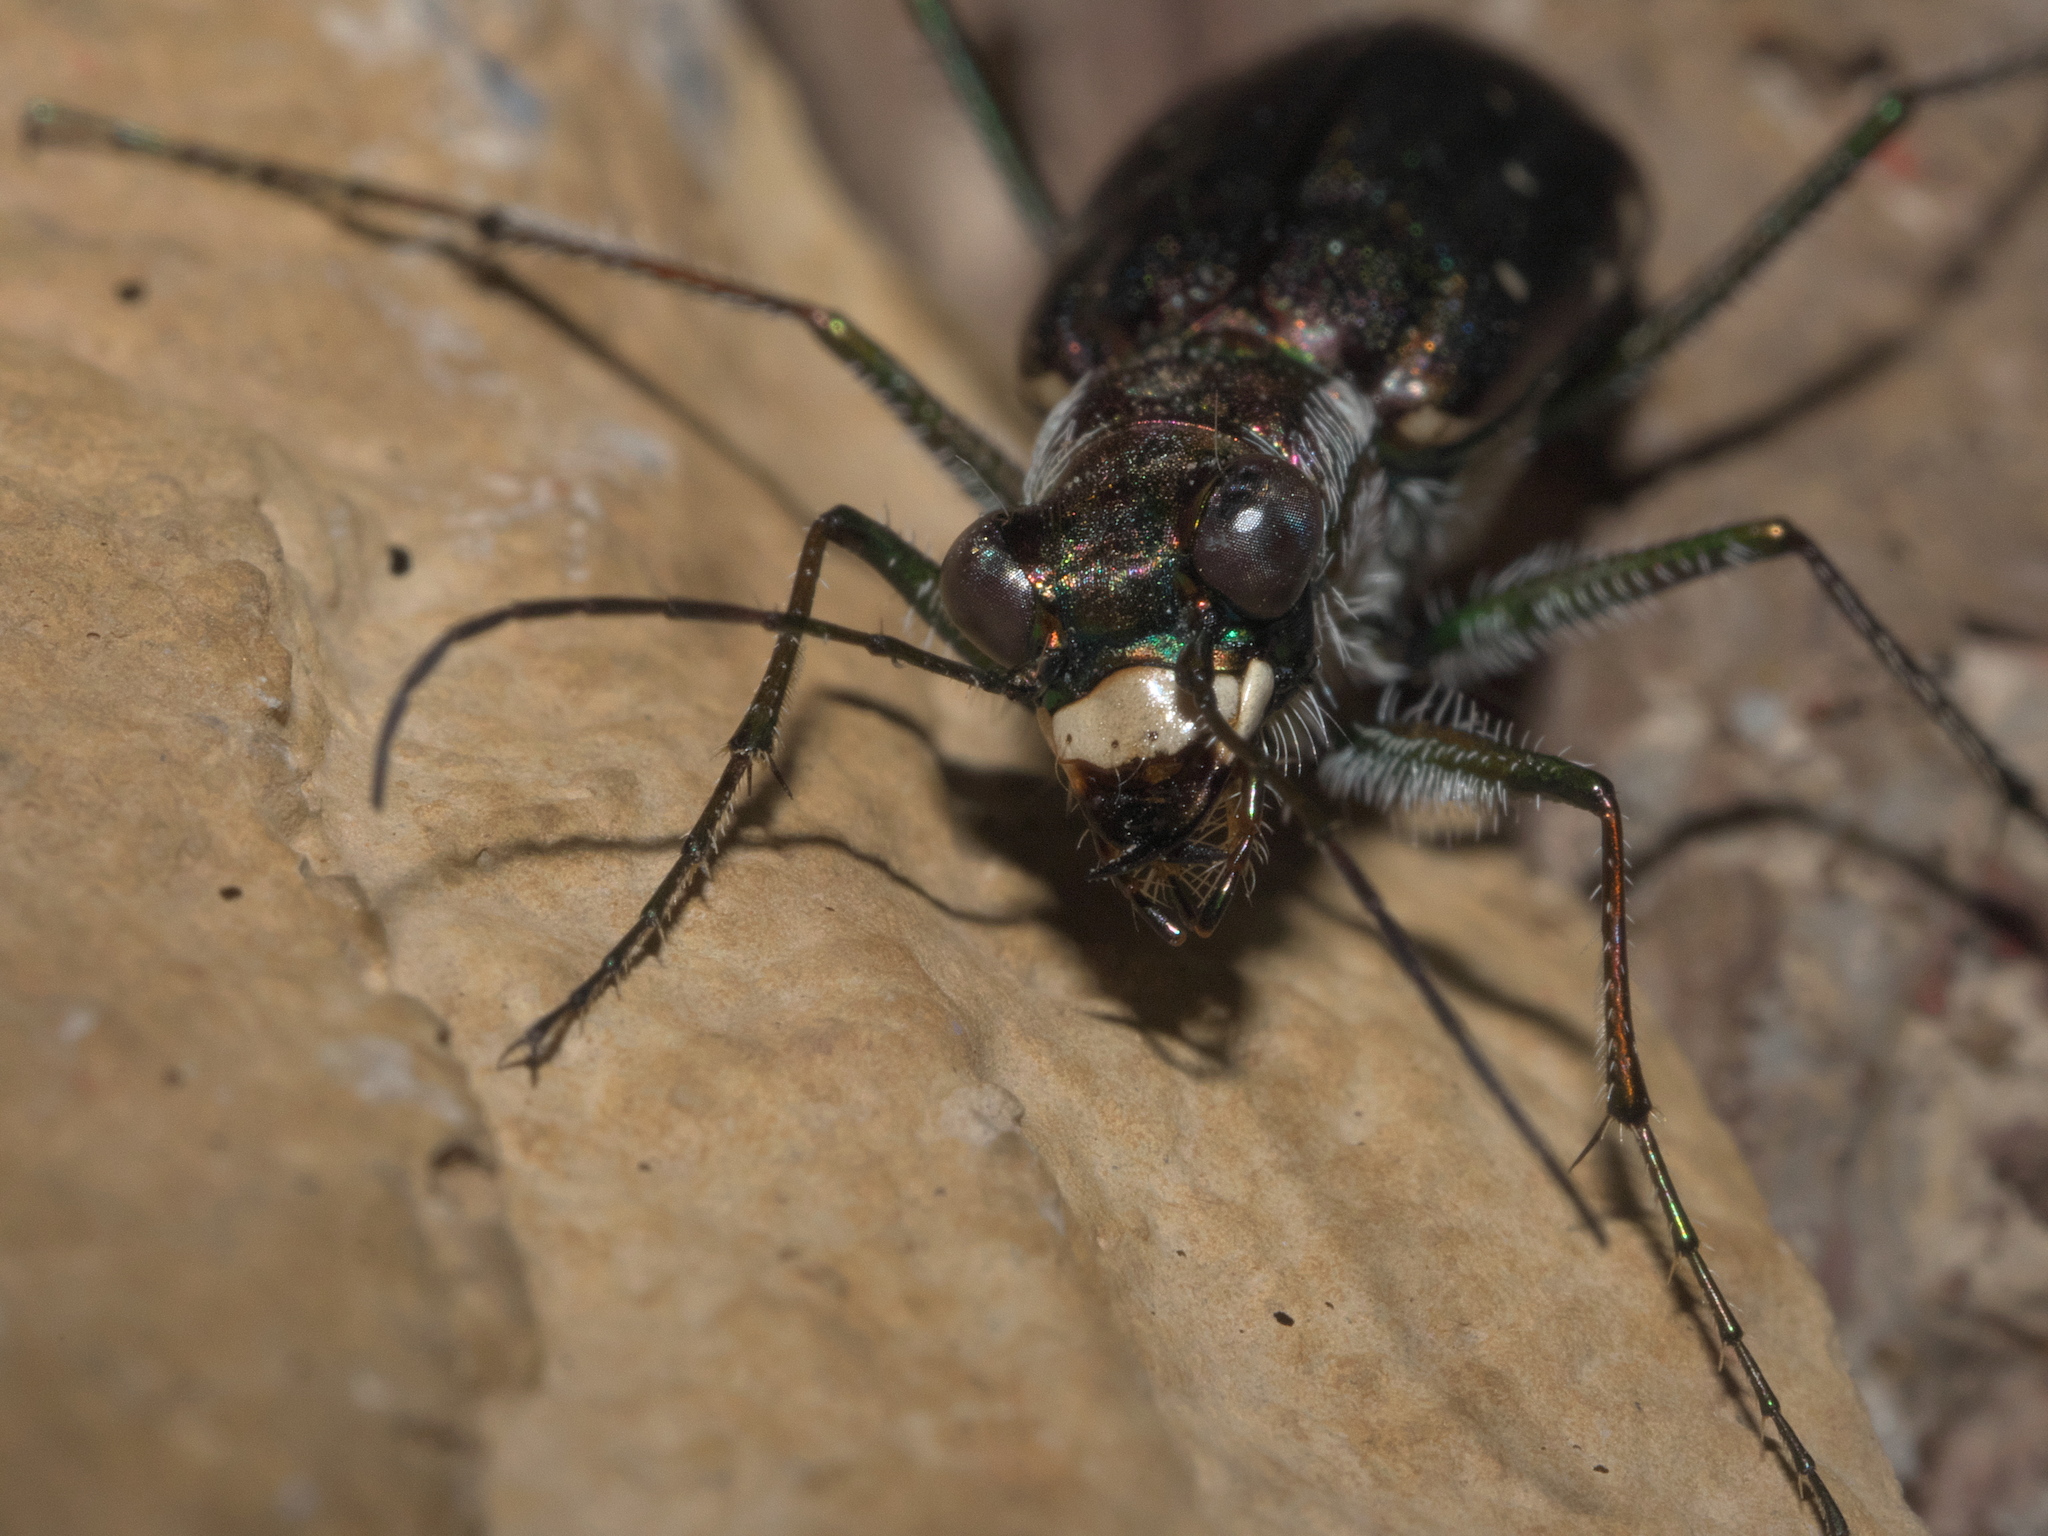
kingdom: Animalia
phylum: Arthropoda
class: Insecta
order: Coleoptera
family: Carabidae
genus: Cicindela
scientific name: Cicindela punctulata
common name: Punctured tiger beetle
